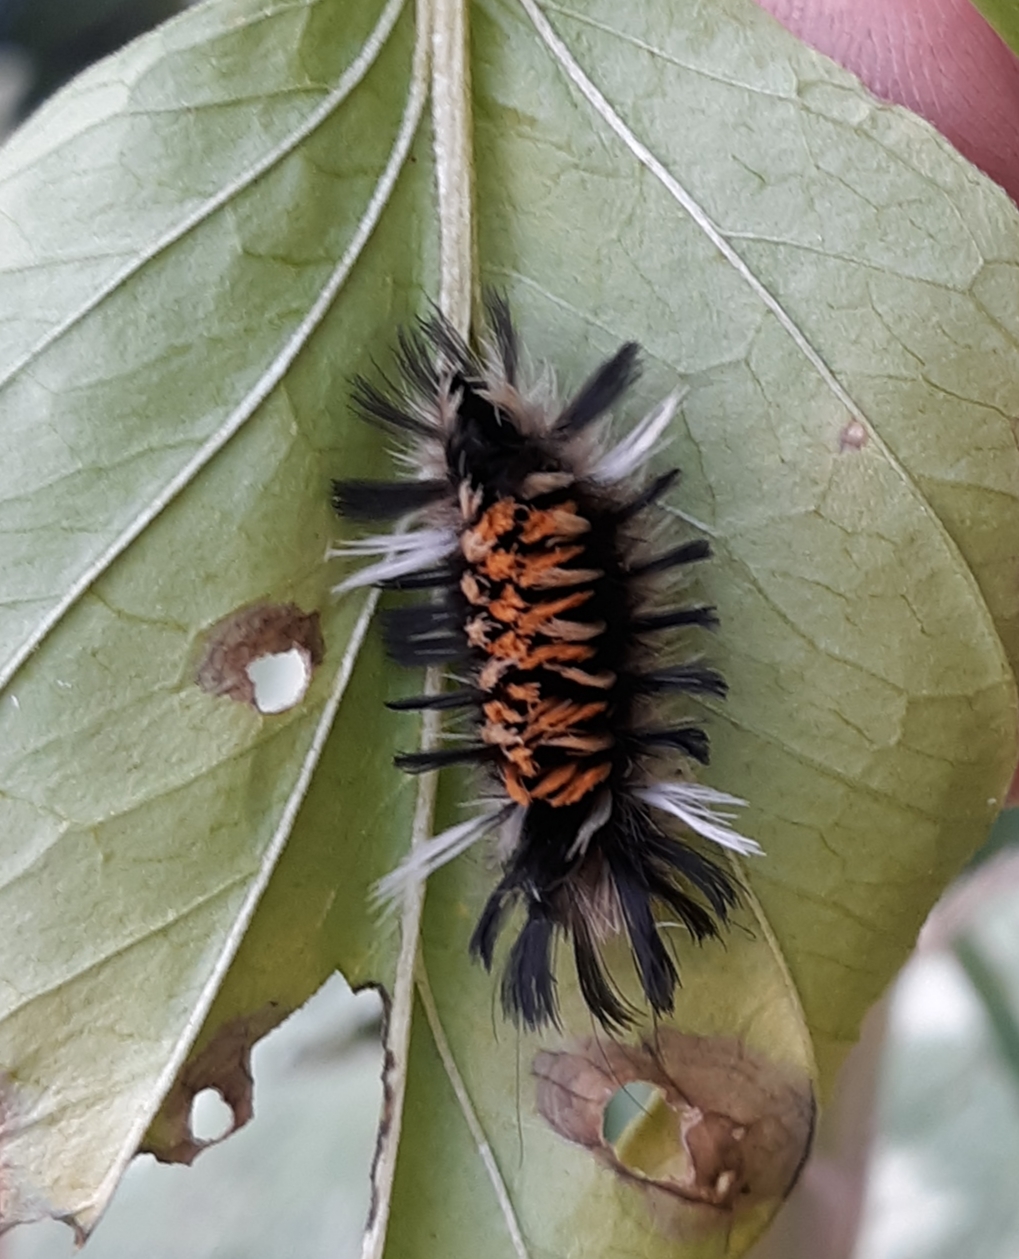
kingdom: Animalia
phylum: Arthropoda
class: Insecta
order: Lepidoptera
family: Erebidae
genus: Euchaetes
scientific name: Euchaetes egle
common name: Milkweed tussock moth
